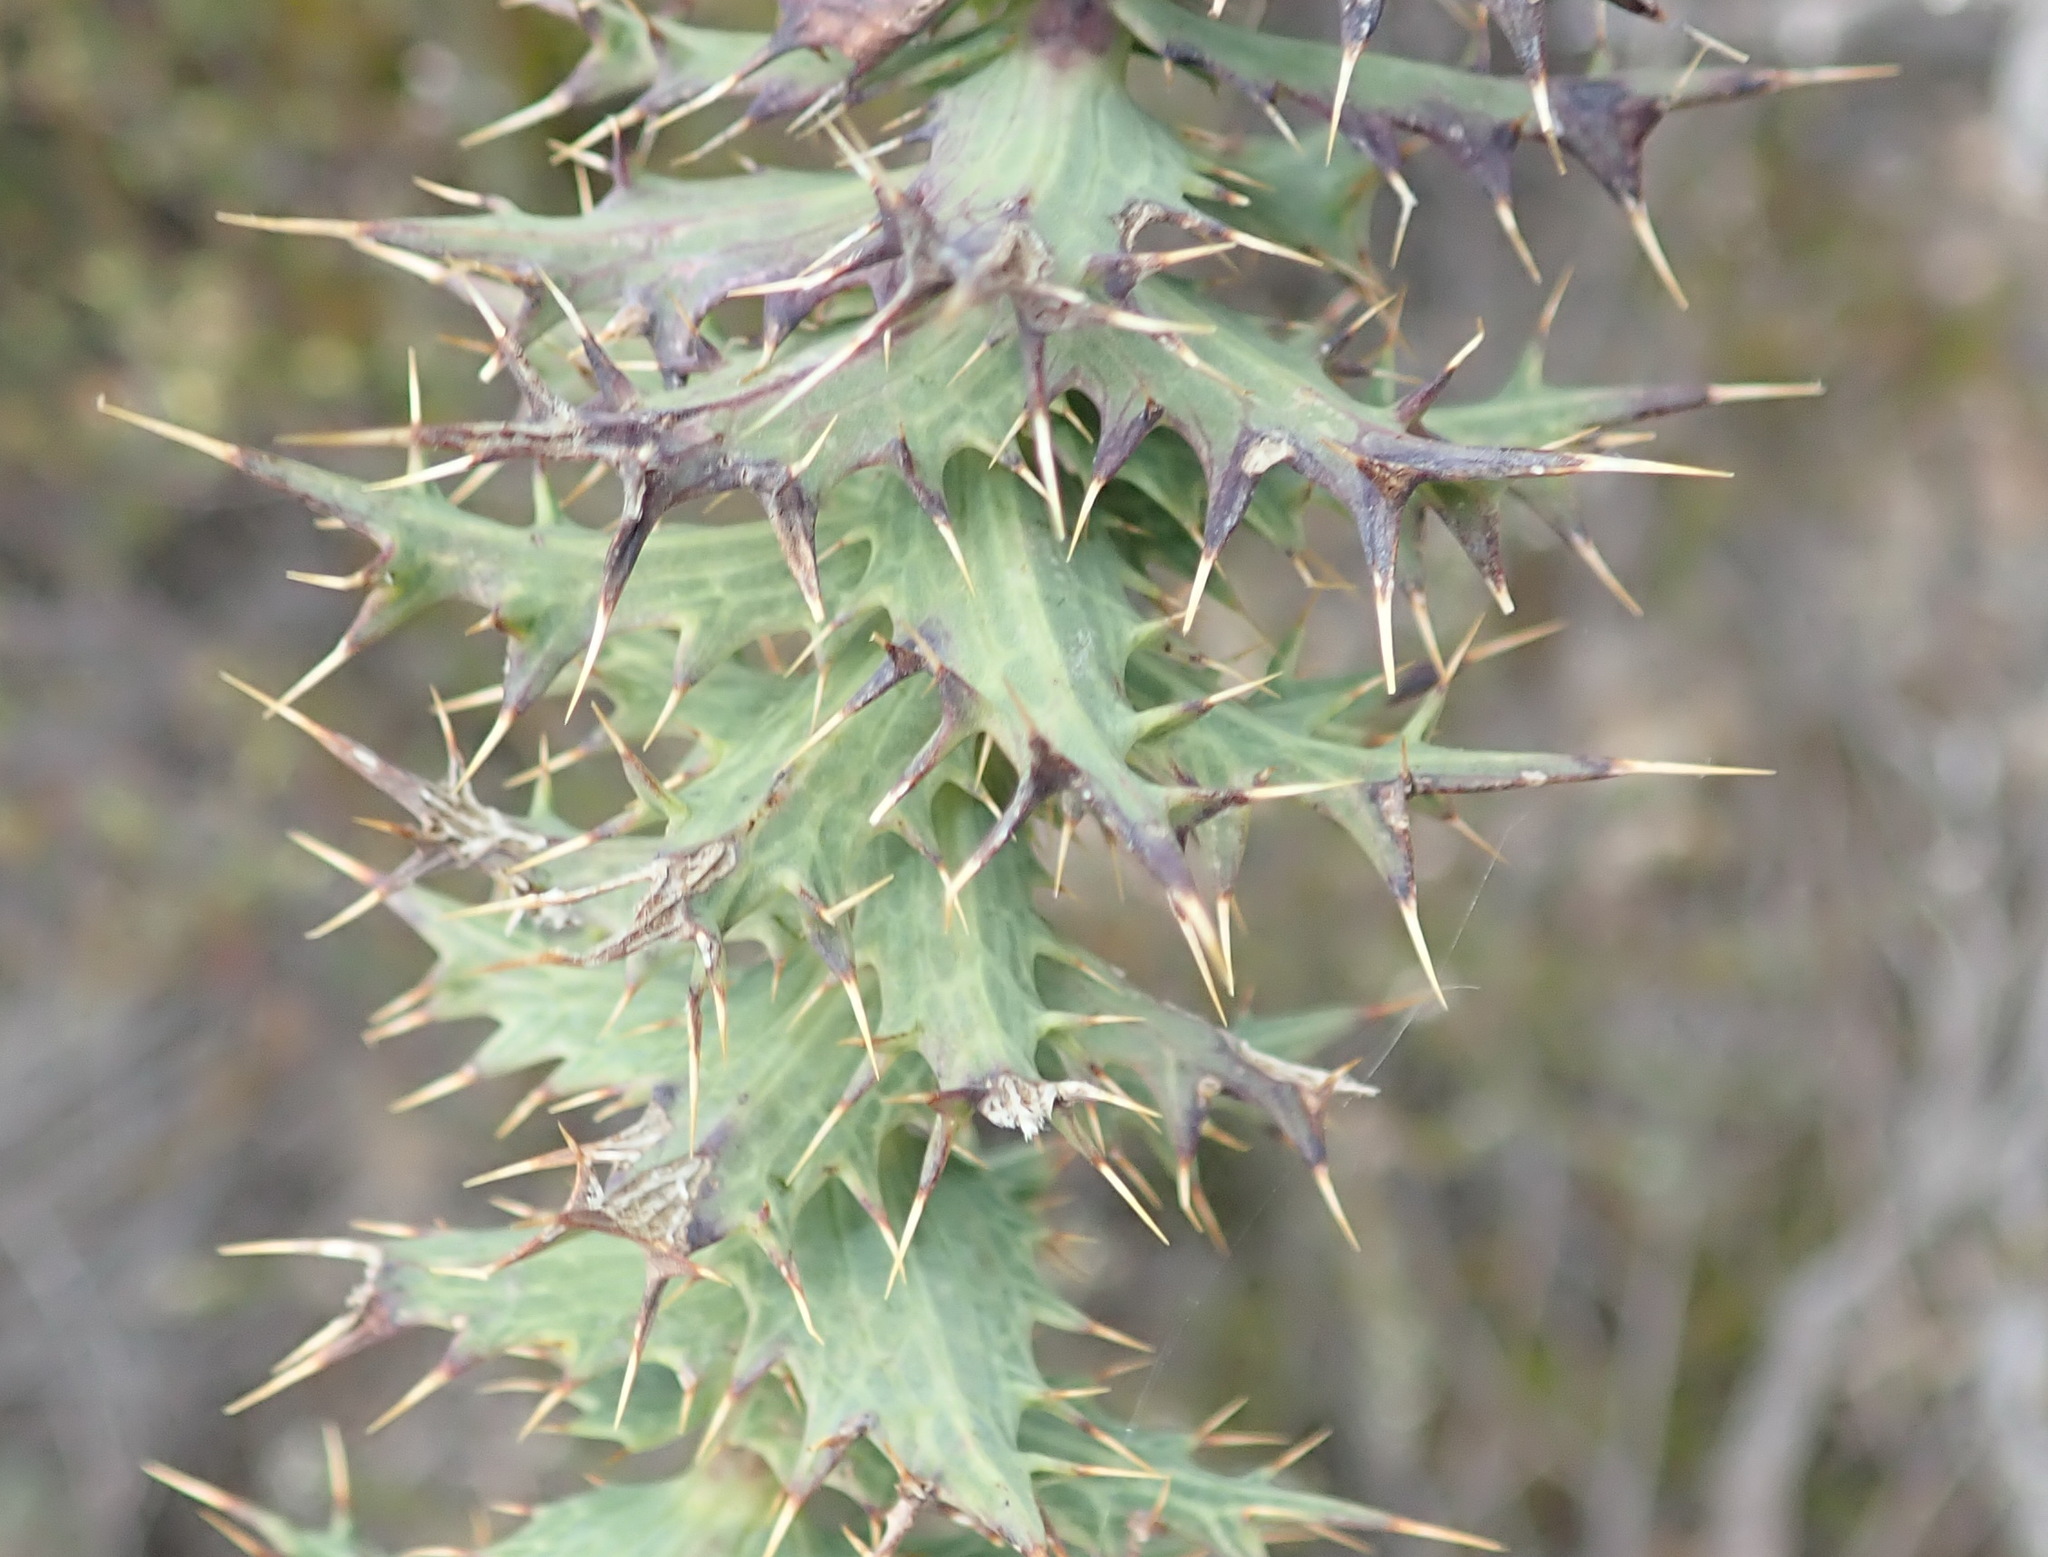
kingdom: Plantae
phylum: Tracheophyta
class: Magnoliopsida
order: Asterales
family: Asteraceae
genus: Berkheya
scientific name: Berkheya cruciata
